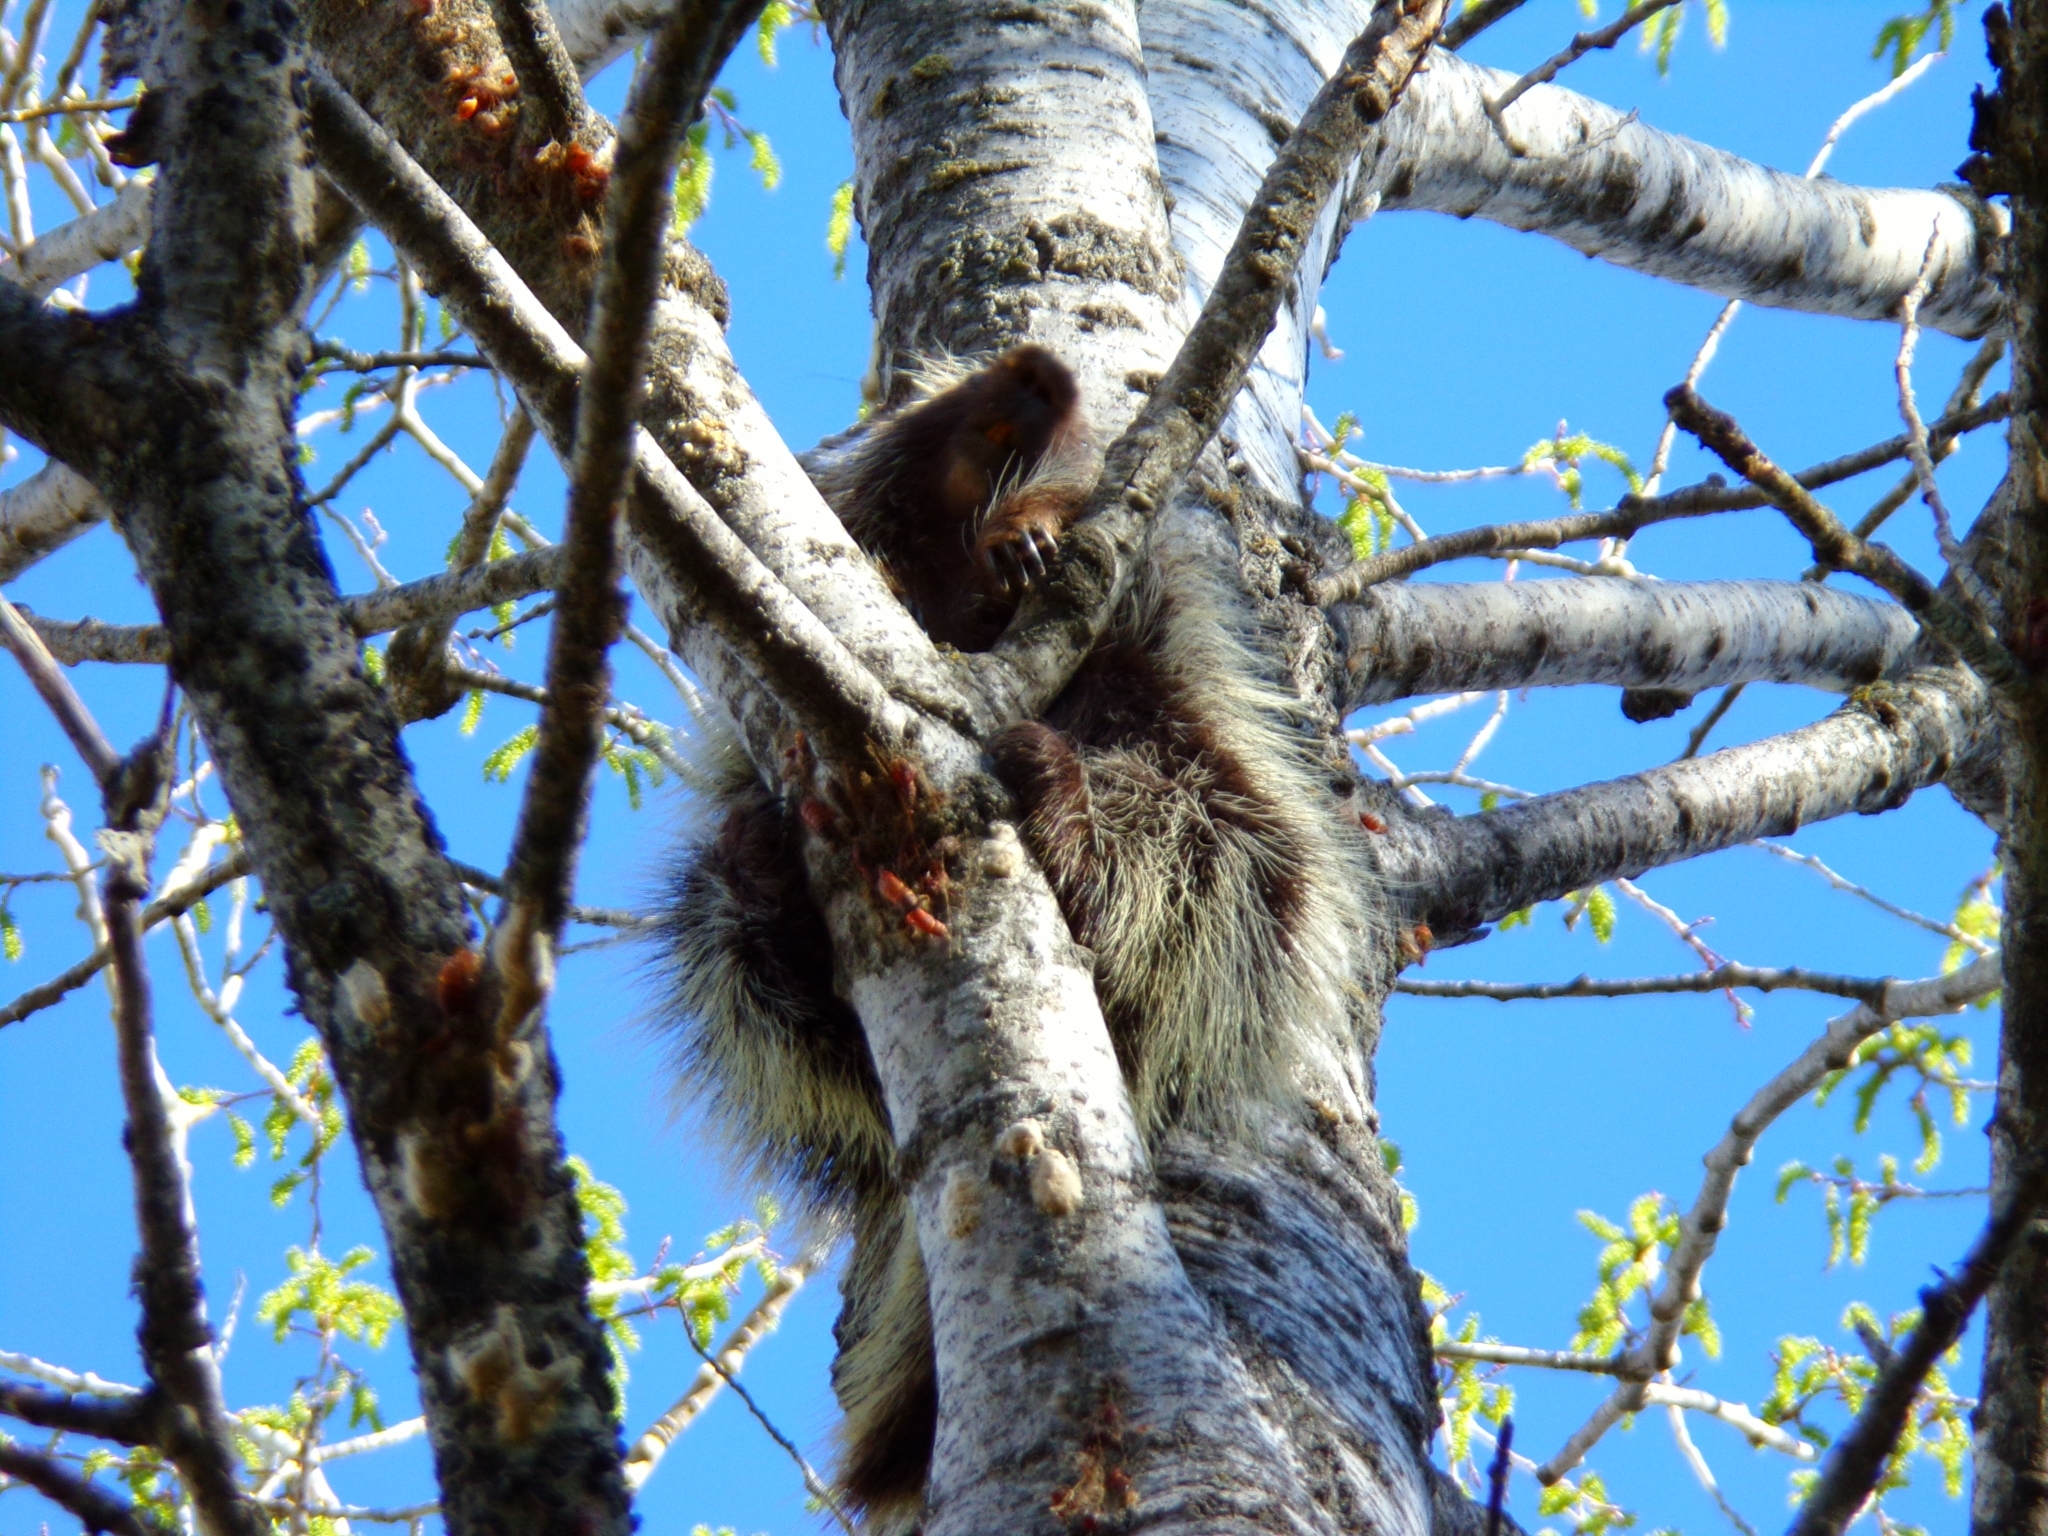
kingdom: Animalia
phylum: Chordata
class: Mammalia
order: Rodentia
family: Erethizontidae
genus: Erethizon
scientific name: Erethizon dorsatus
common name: North american porcupine
